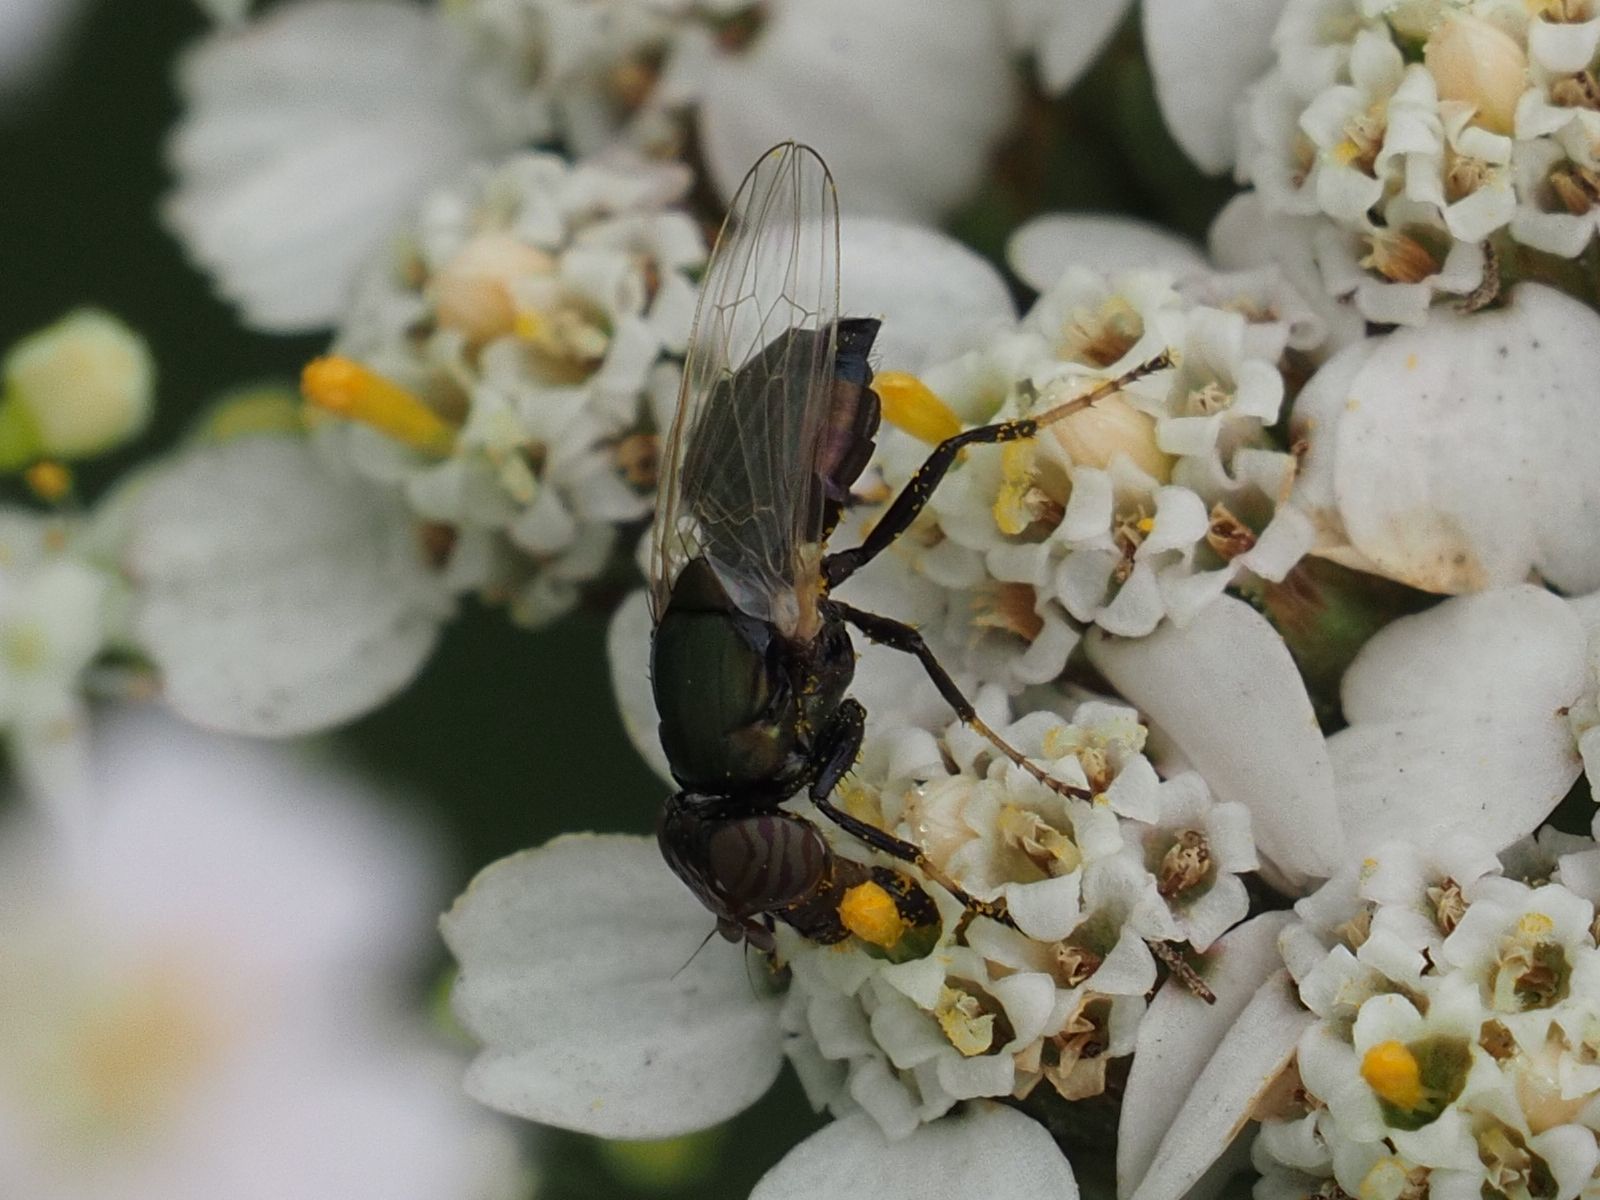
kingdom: Animalia
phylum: Arthropoda
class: Insecta
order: Diptera
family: Ulidiidae
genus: Physiphora
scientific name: Physiphora alceae
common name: Picture-winged fly
